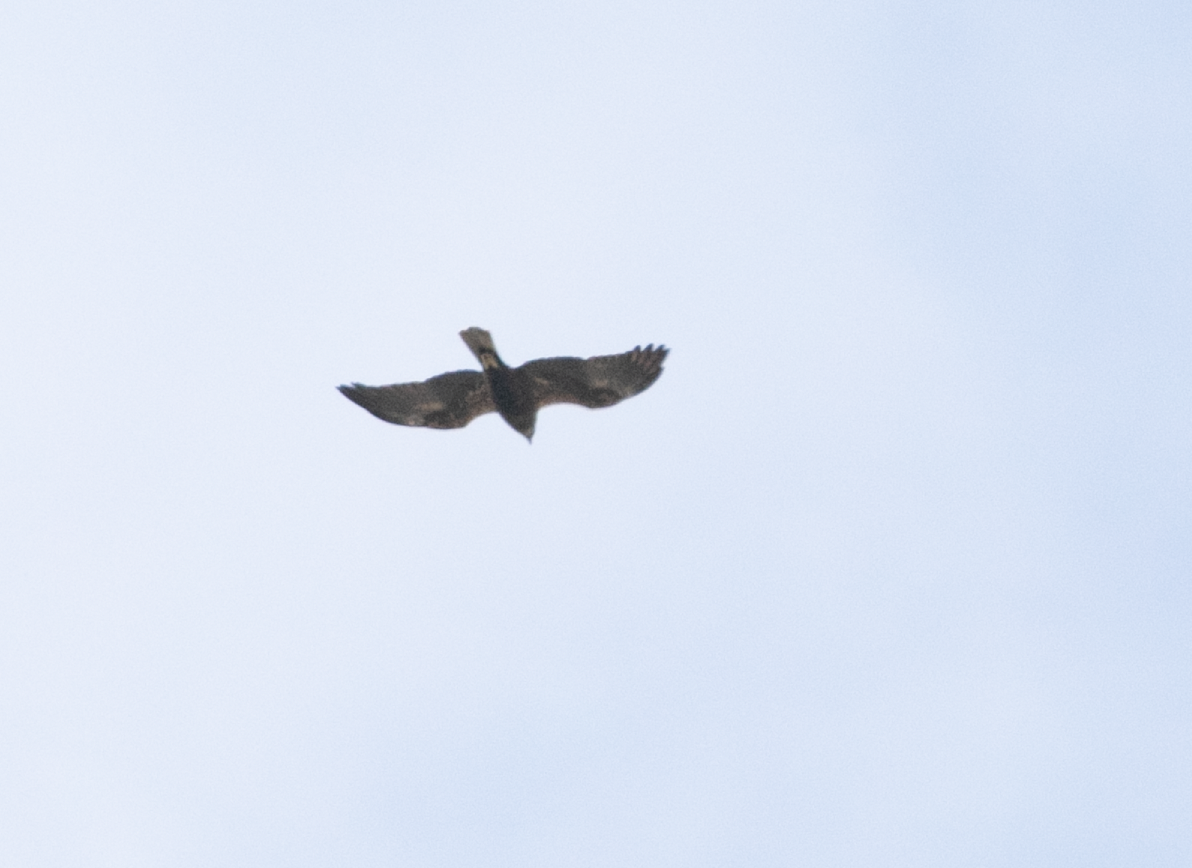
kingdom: Animalia
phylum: Chordata
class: Aves
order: Accipitriformes
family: Accipitridae
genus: Circus
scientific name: Circus aeruginosus
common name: Western marsh harrier
